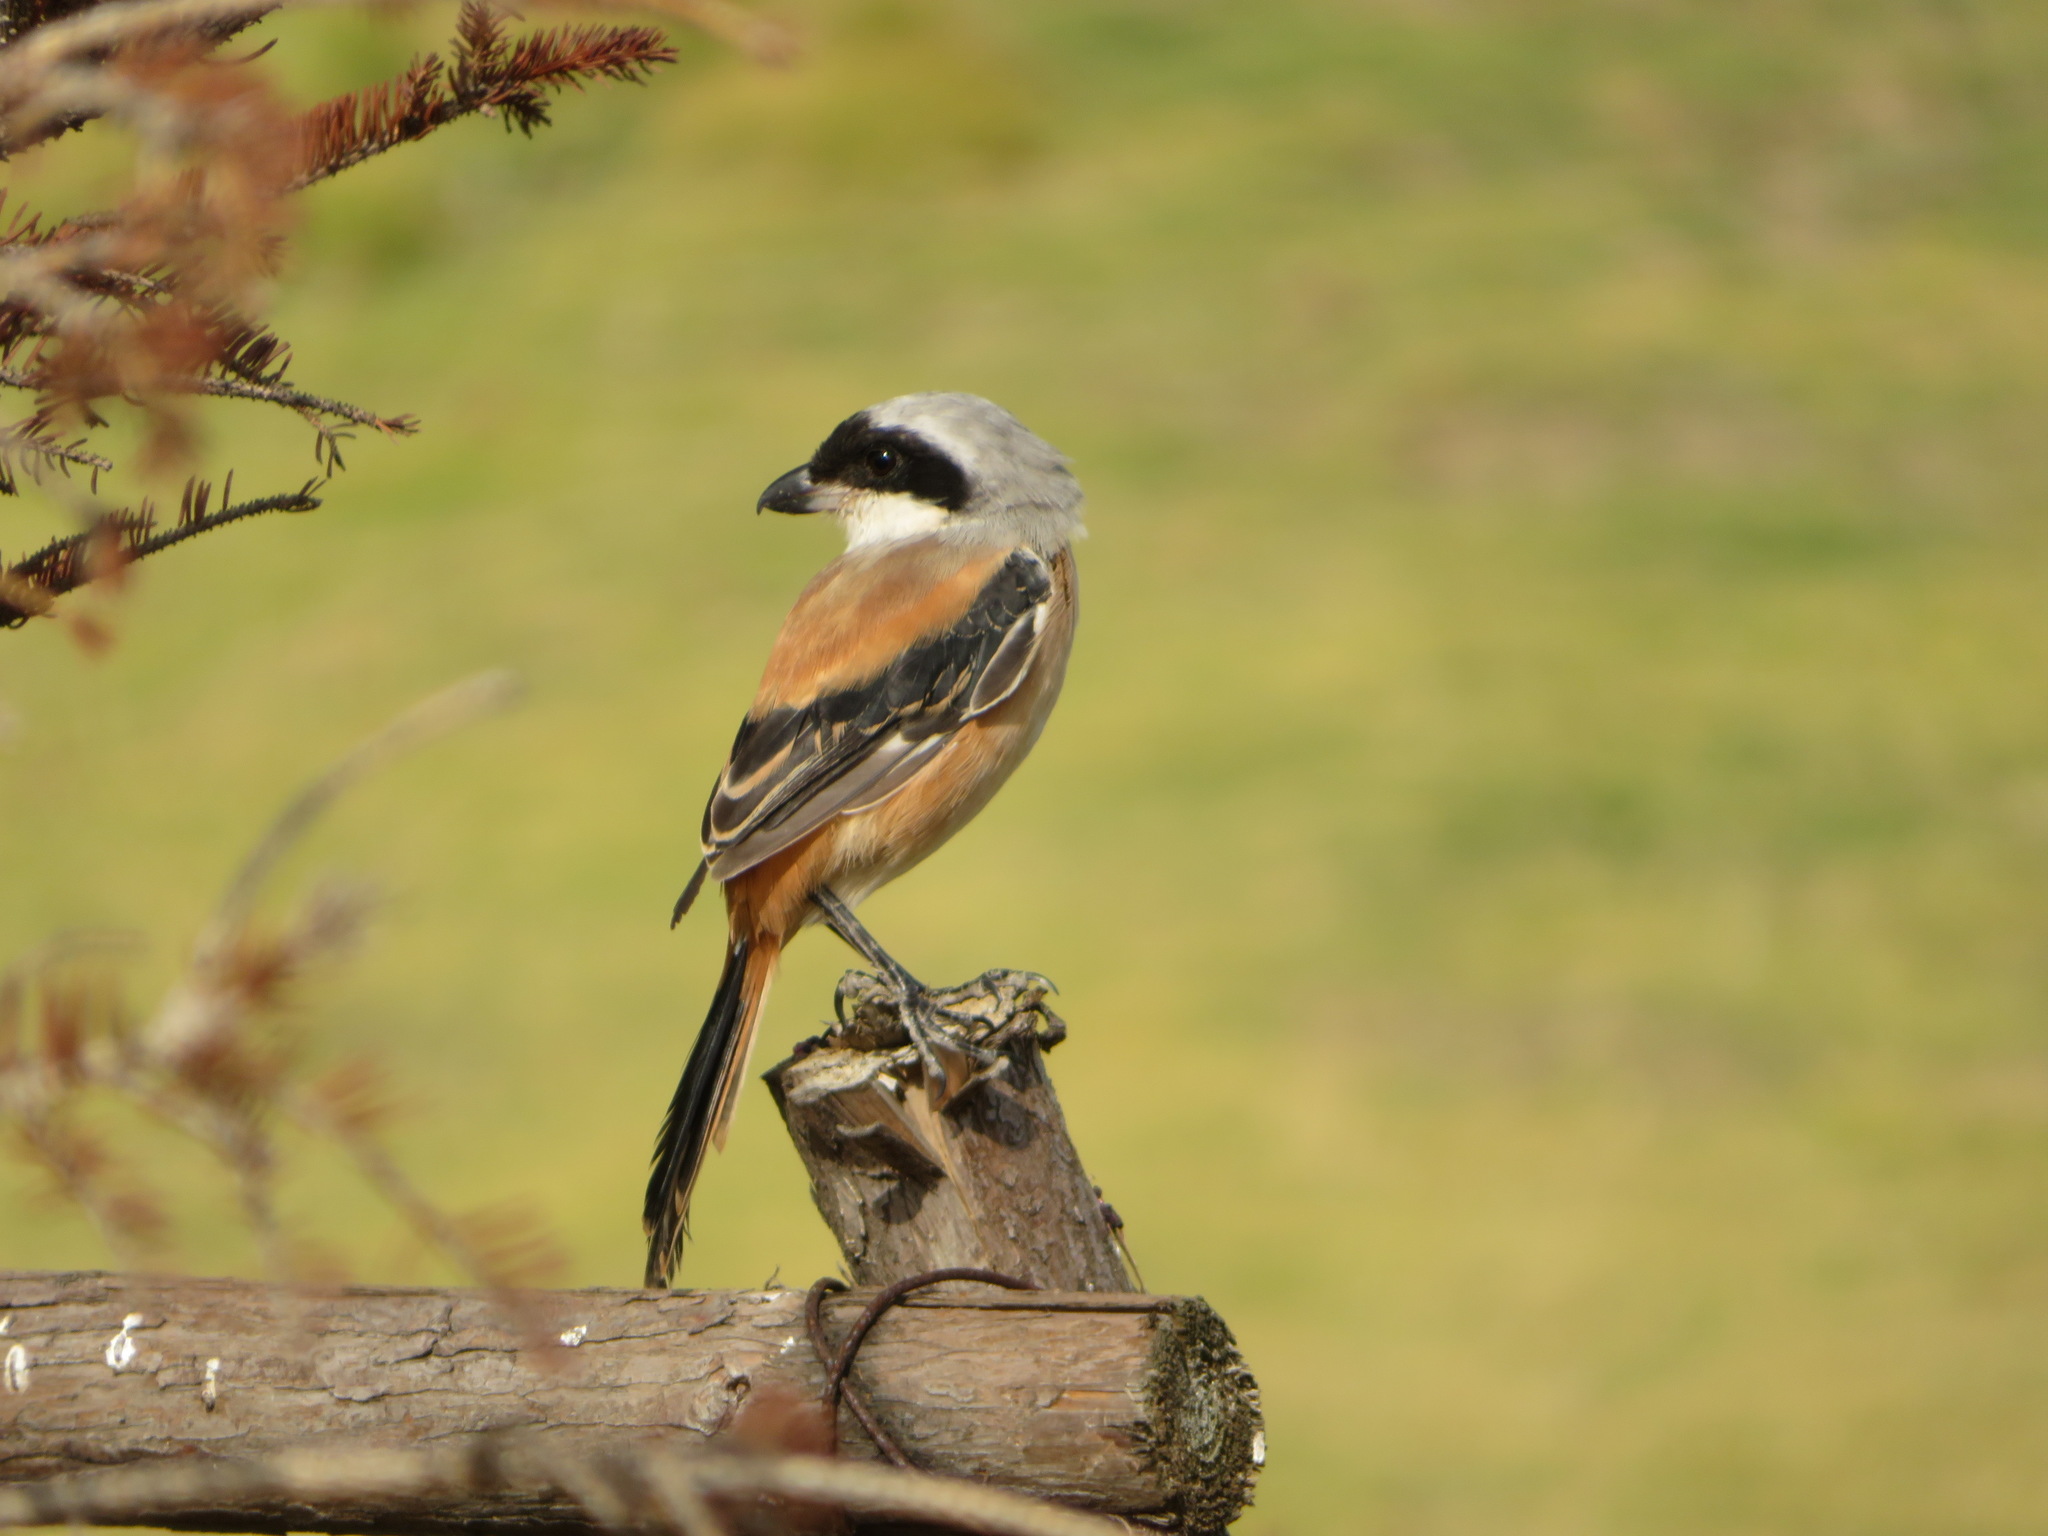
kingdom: Animalia
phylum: Chordata
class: Aves
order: Passeriformes
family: Laniidae
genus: Lanius
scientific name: Lanius schach
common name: Long-tailed shrike
